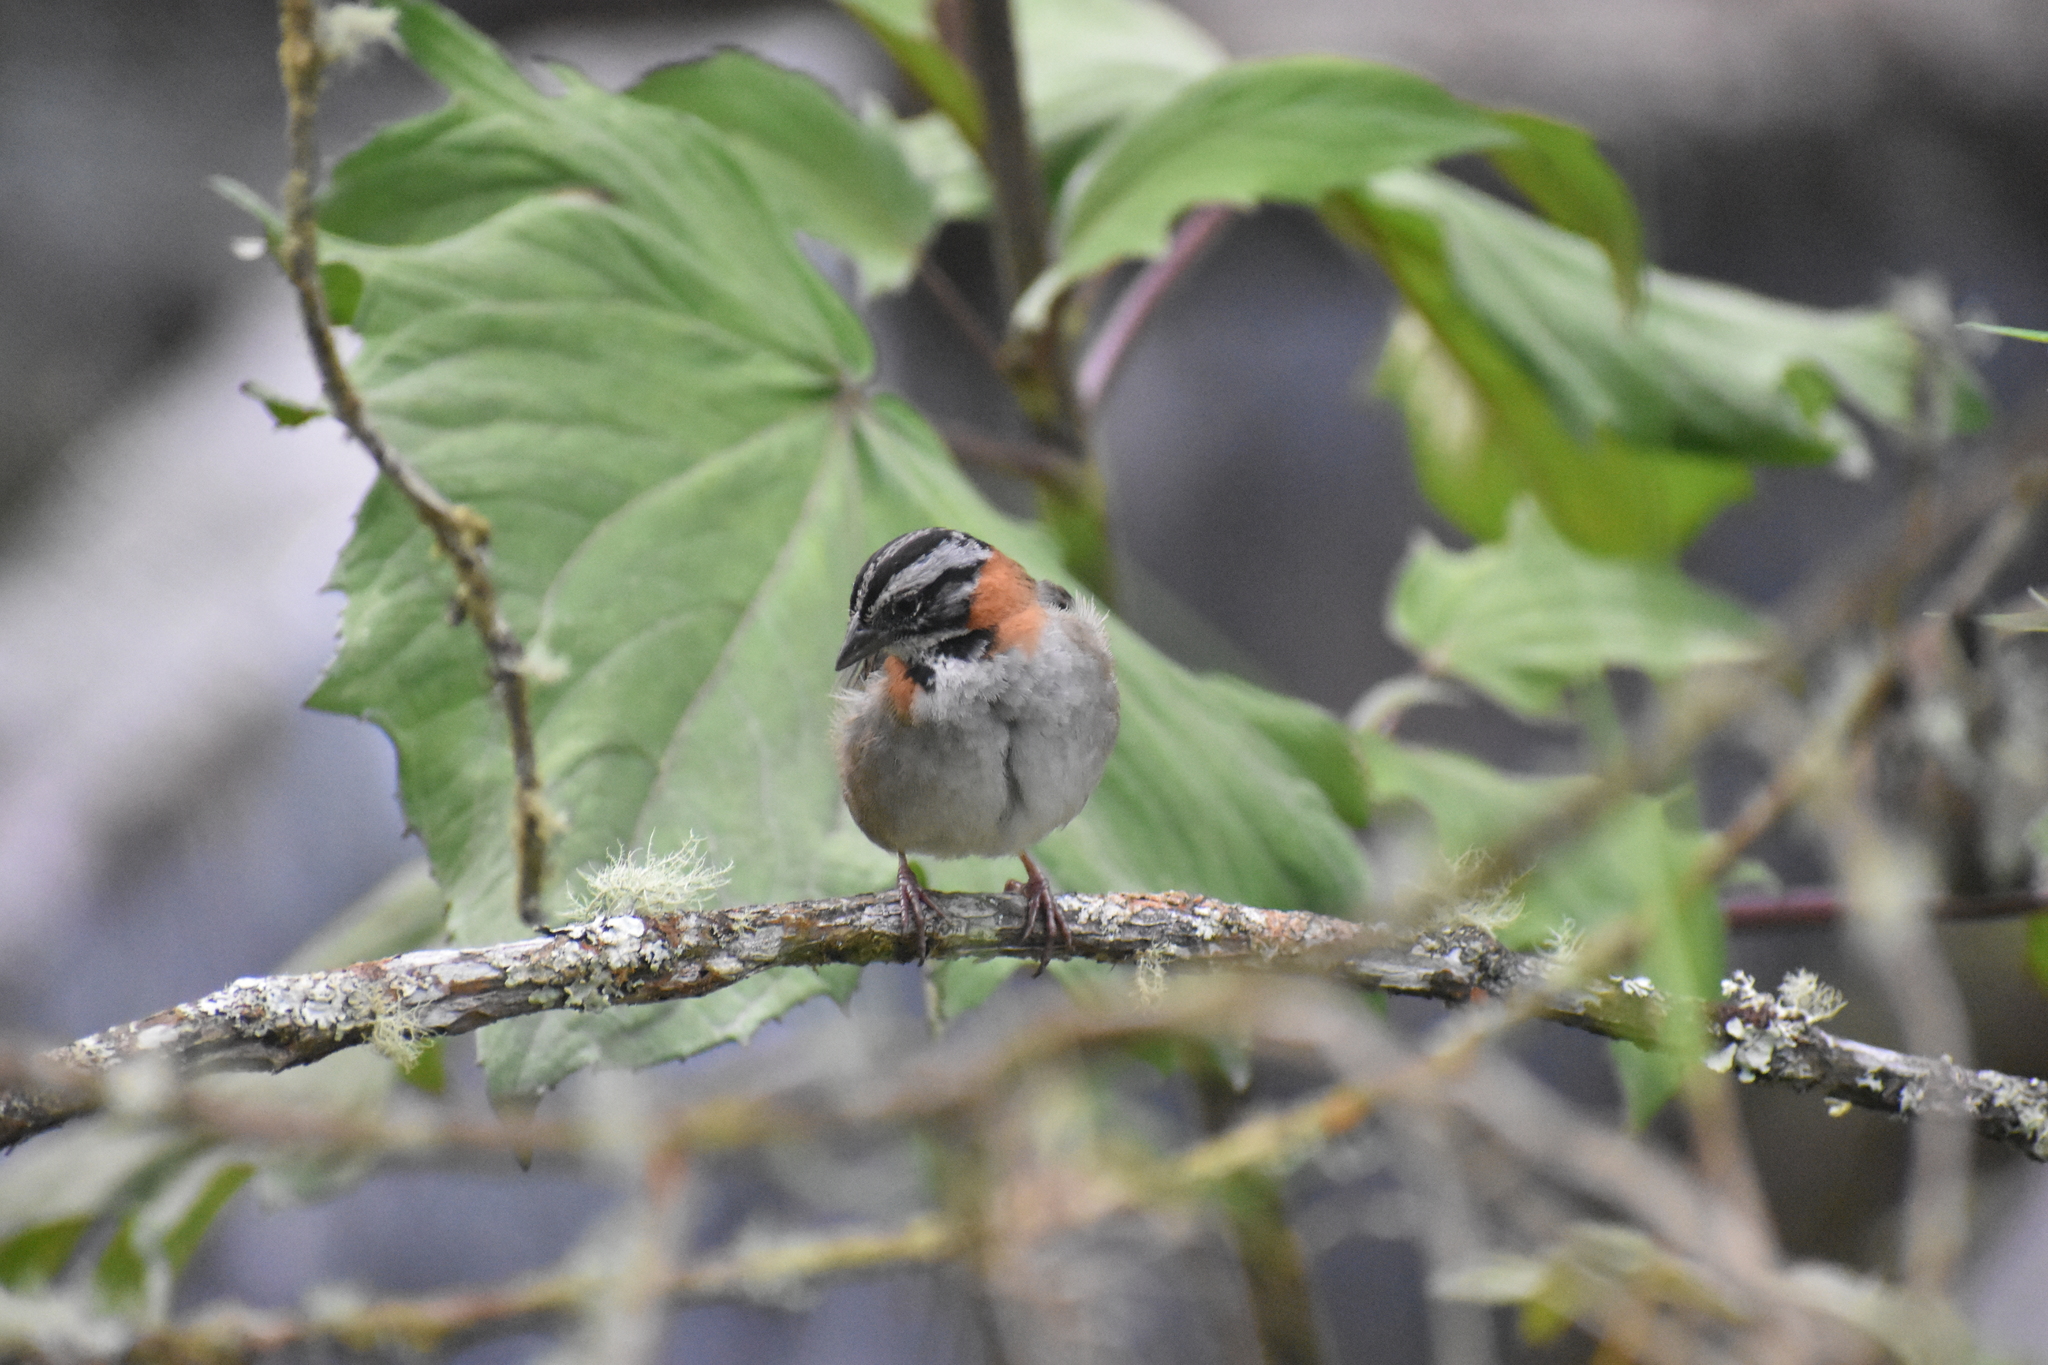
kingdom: Animalia
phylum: Chordata
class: Aves
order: Passeriformes
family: Passerellidae
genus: Zonotrichia
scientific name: Zonotrichia capensis
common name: Rufous-collared sparrow
